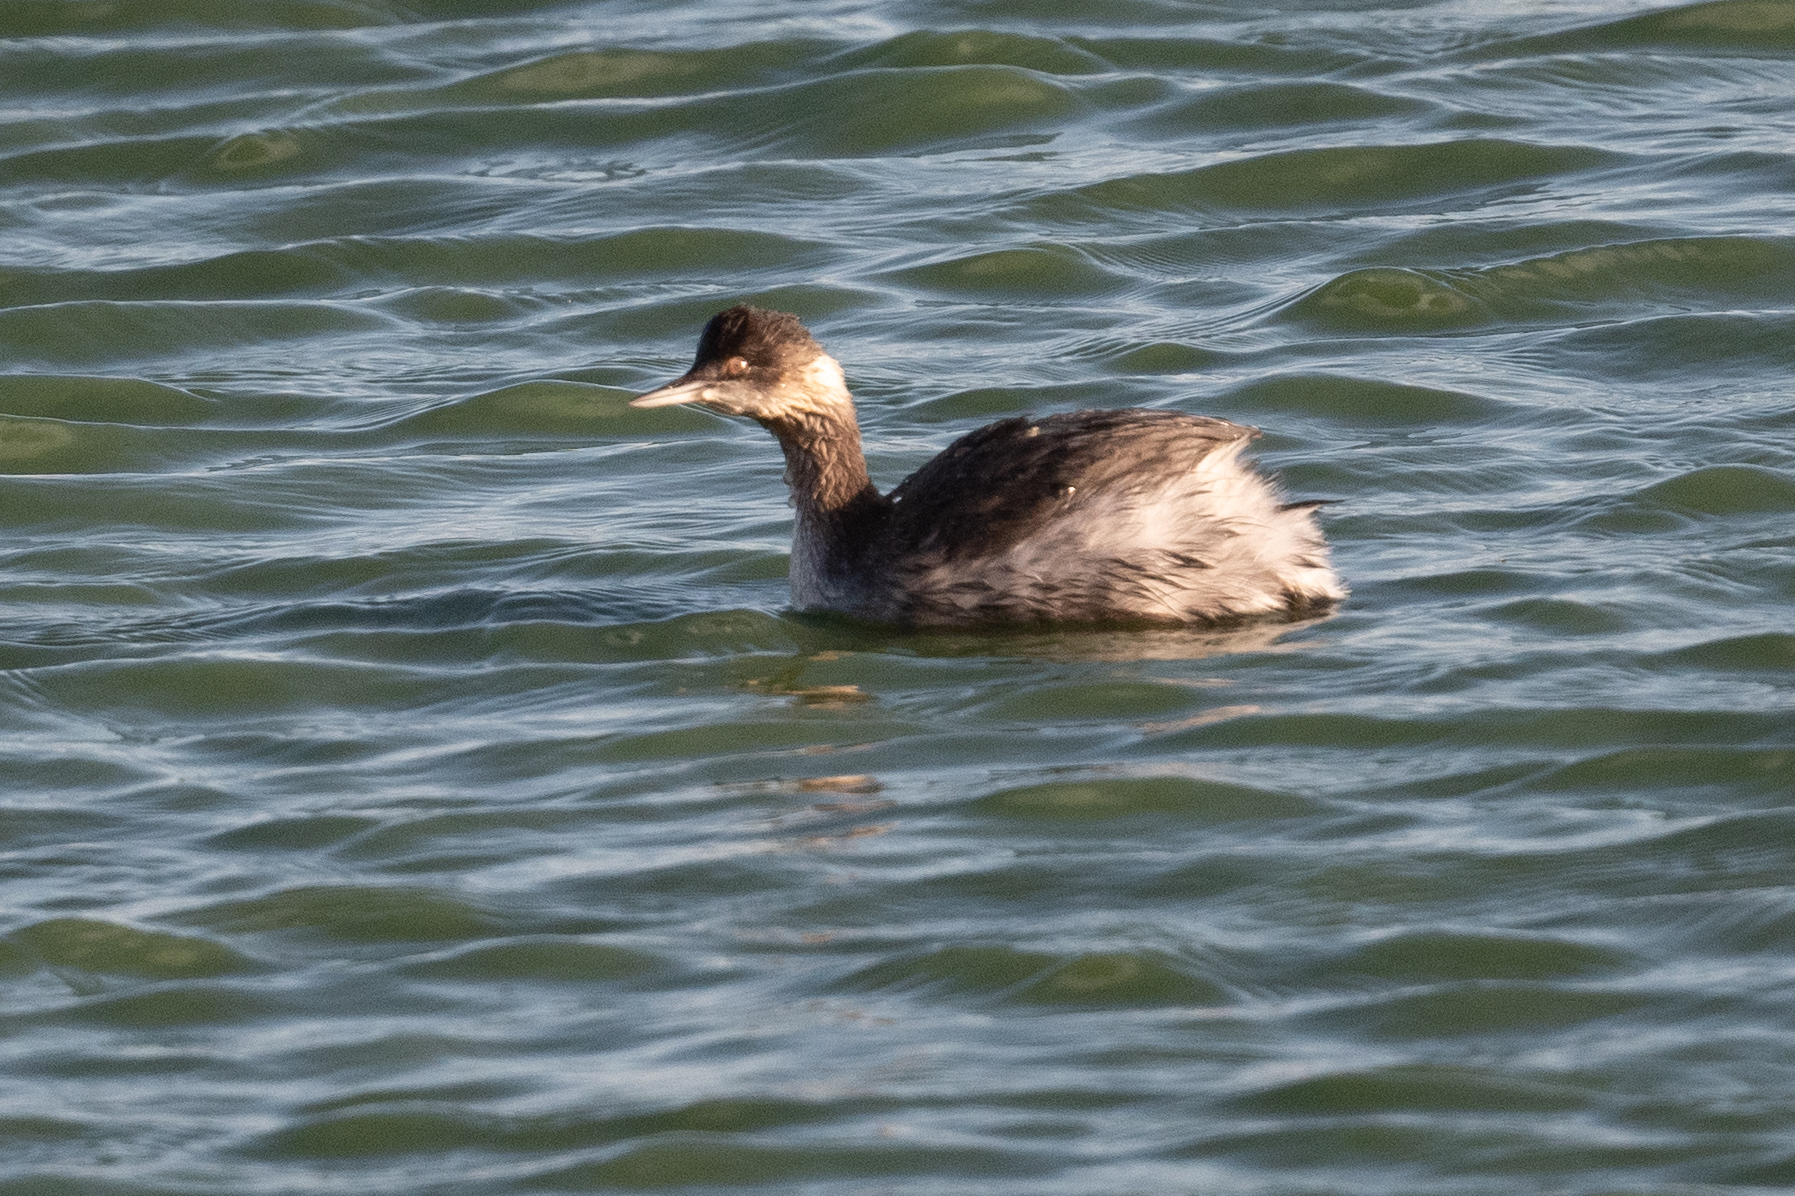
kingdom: Animalia
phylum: Chordata
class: Aves
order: Podicipediformes
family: Podicipedidae
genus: Podiceps
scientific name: Podiceps nigricollis
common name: Black-necked grebe
